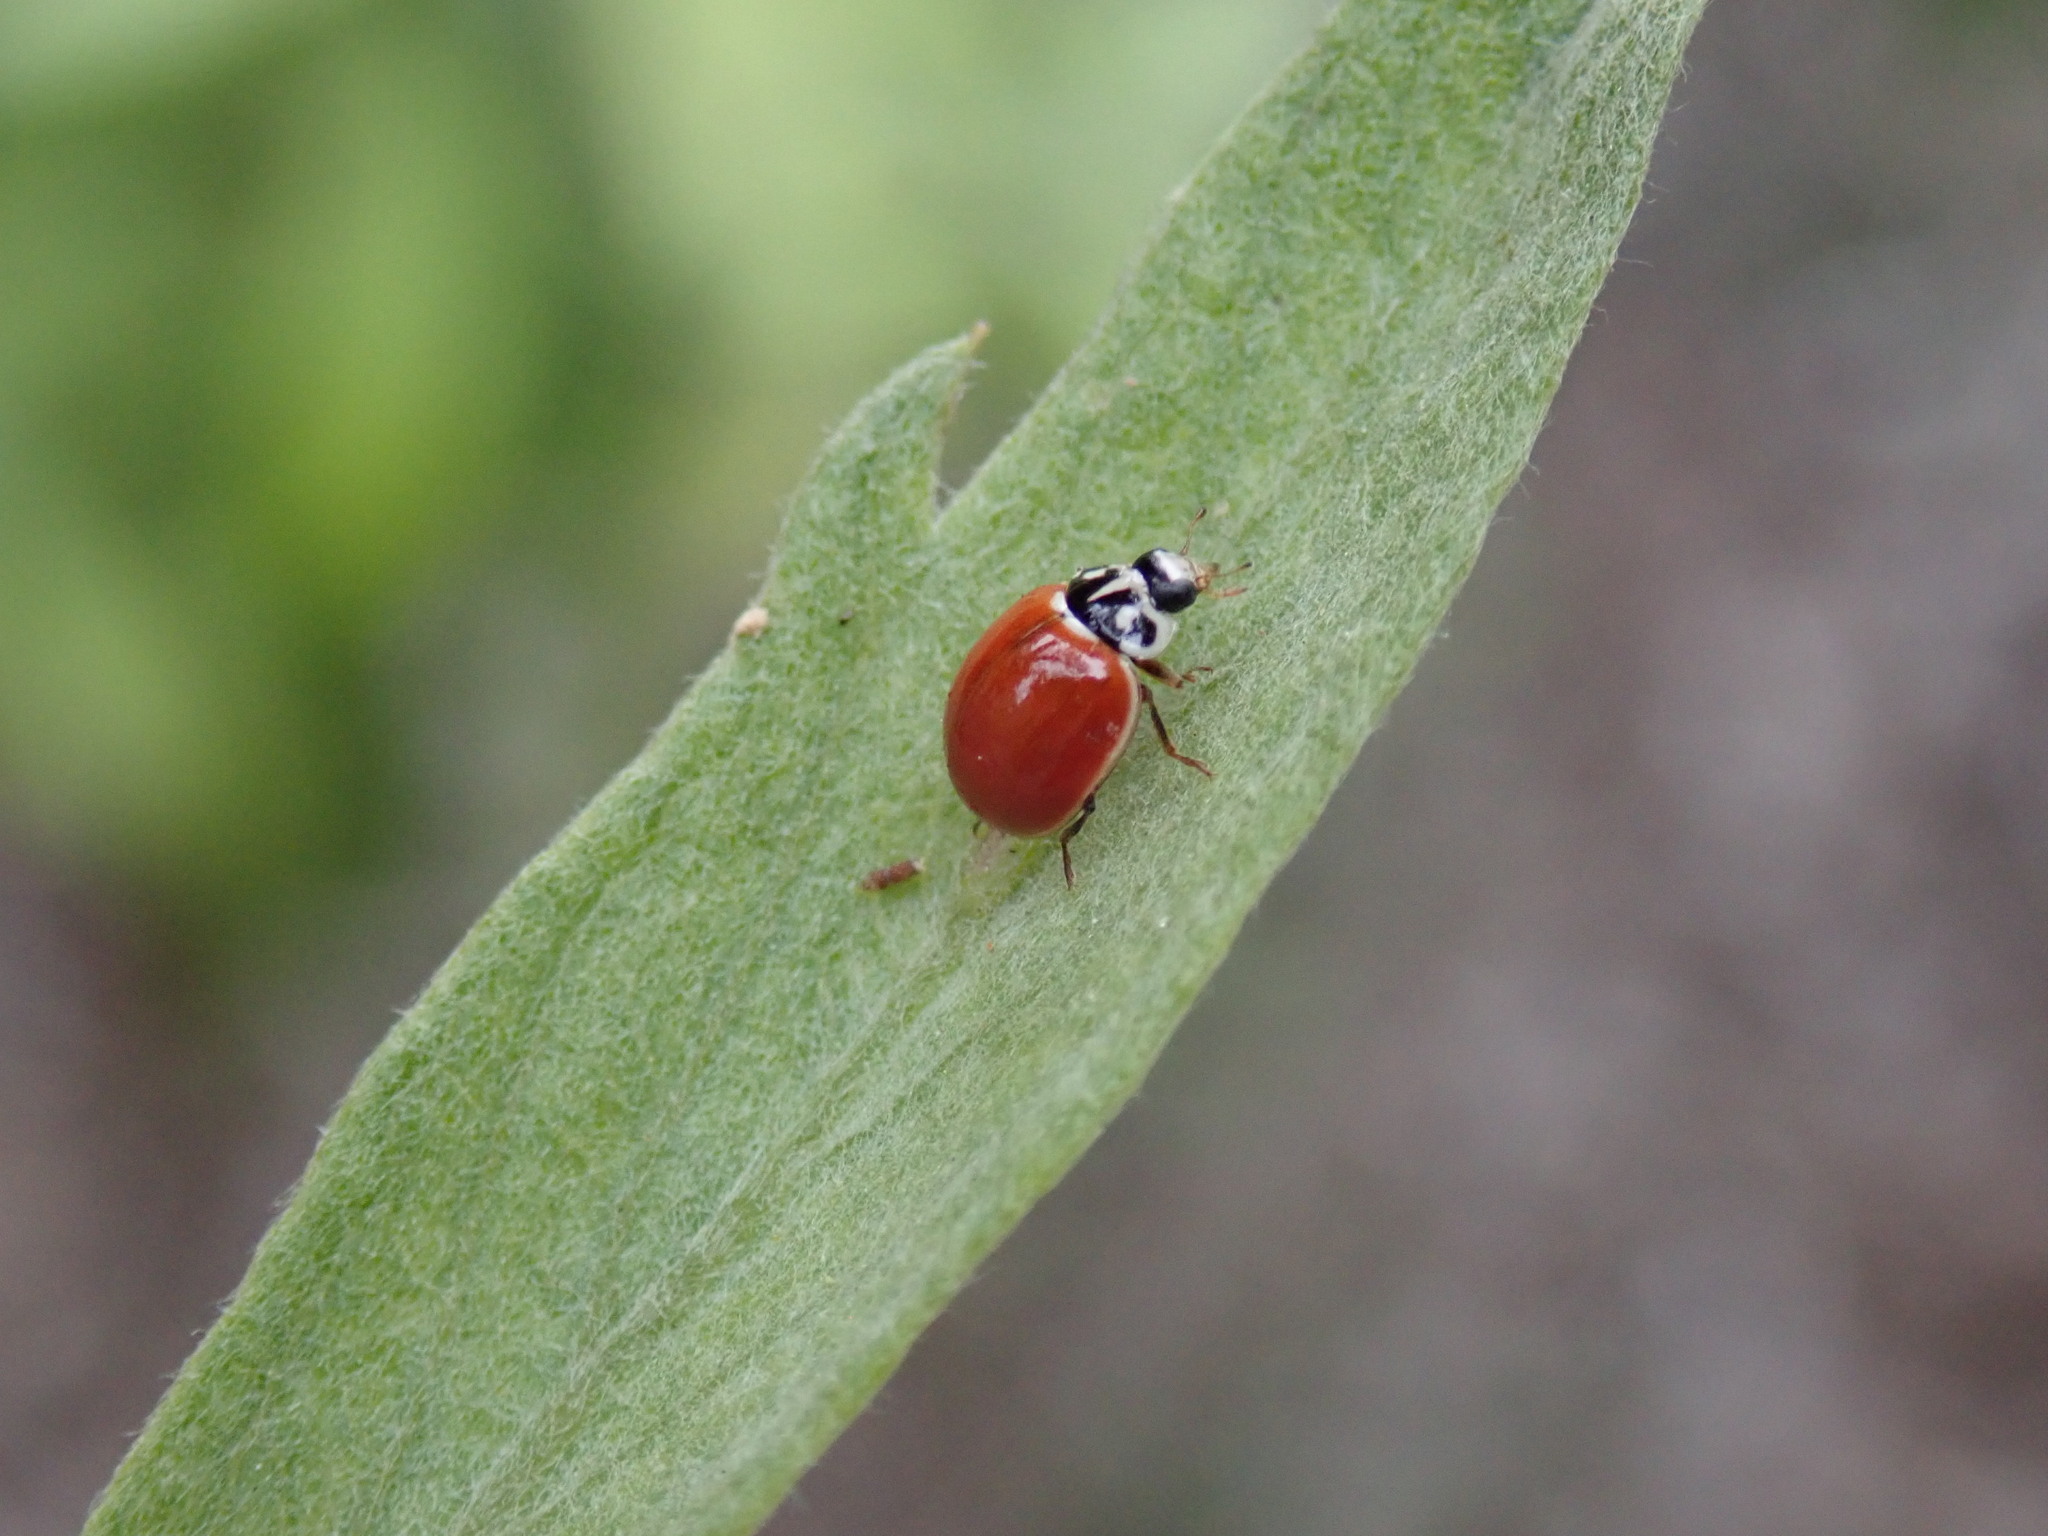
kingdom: Animalia
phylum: Arthropoda
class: Insecta
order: Coleoptera
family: Coccinellidae
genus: Cycloneda
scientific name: Cycloneda polita
